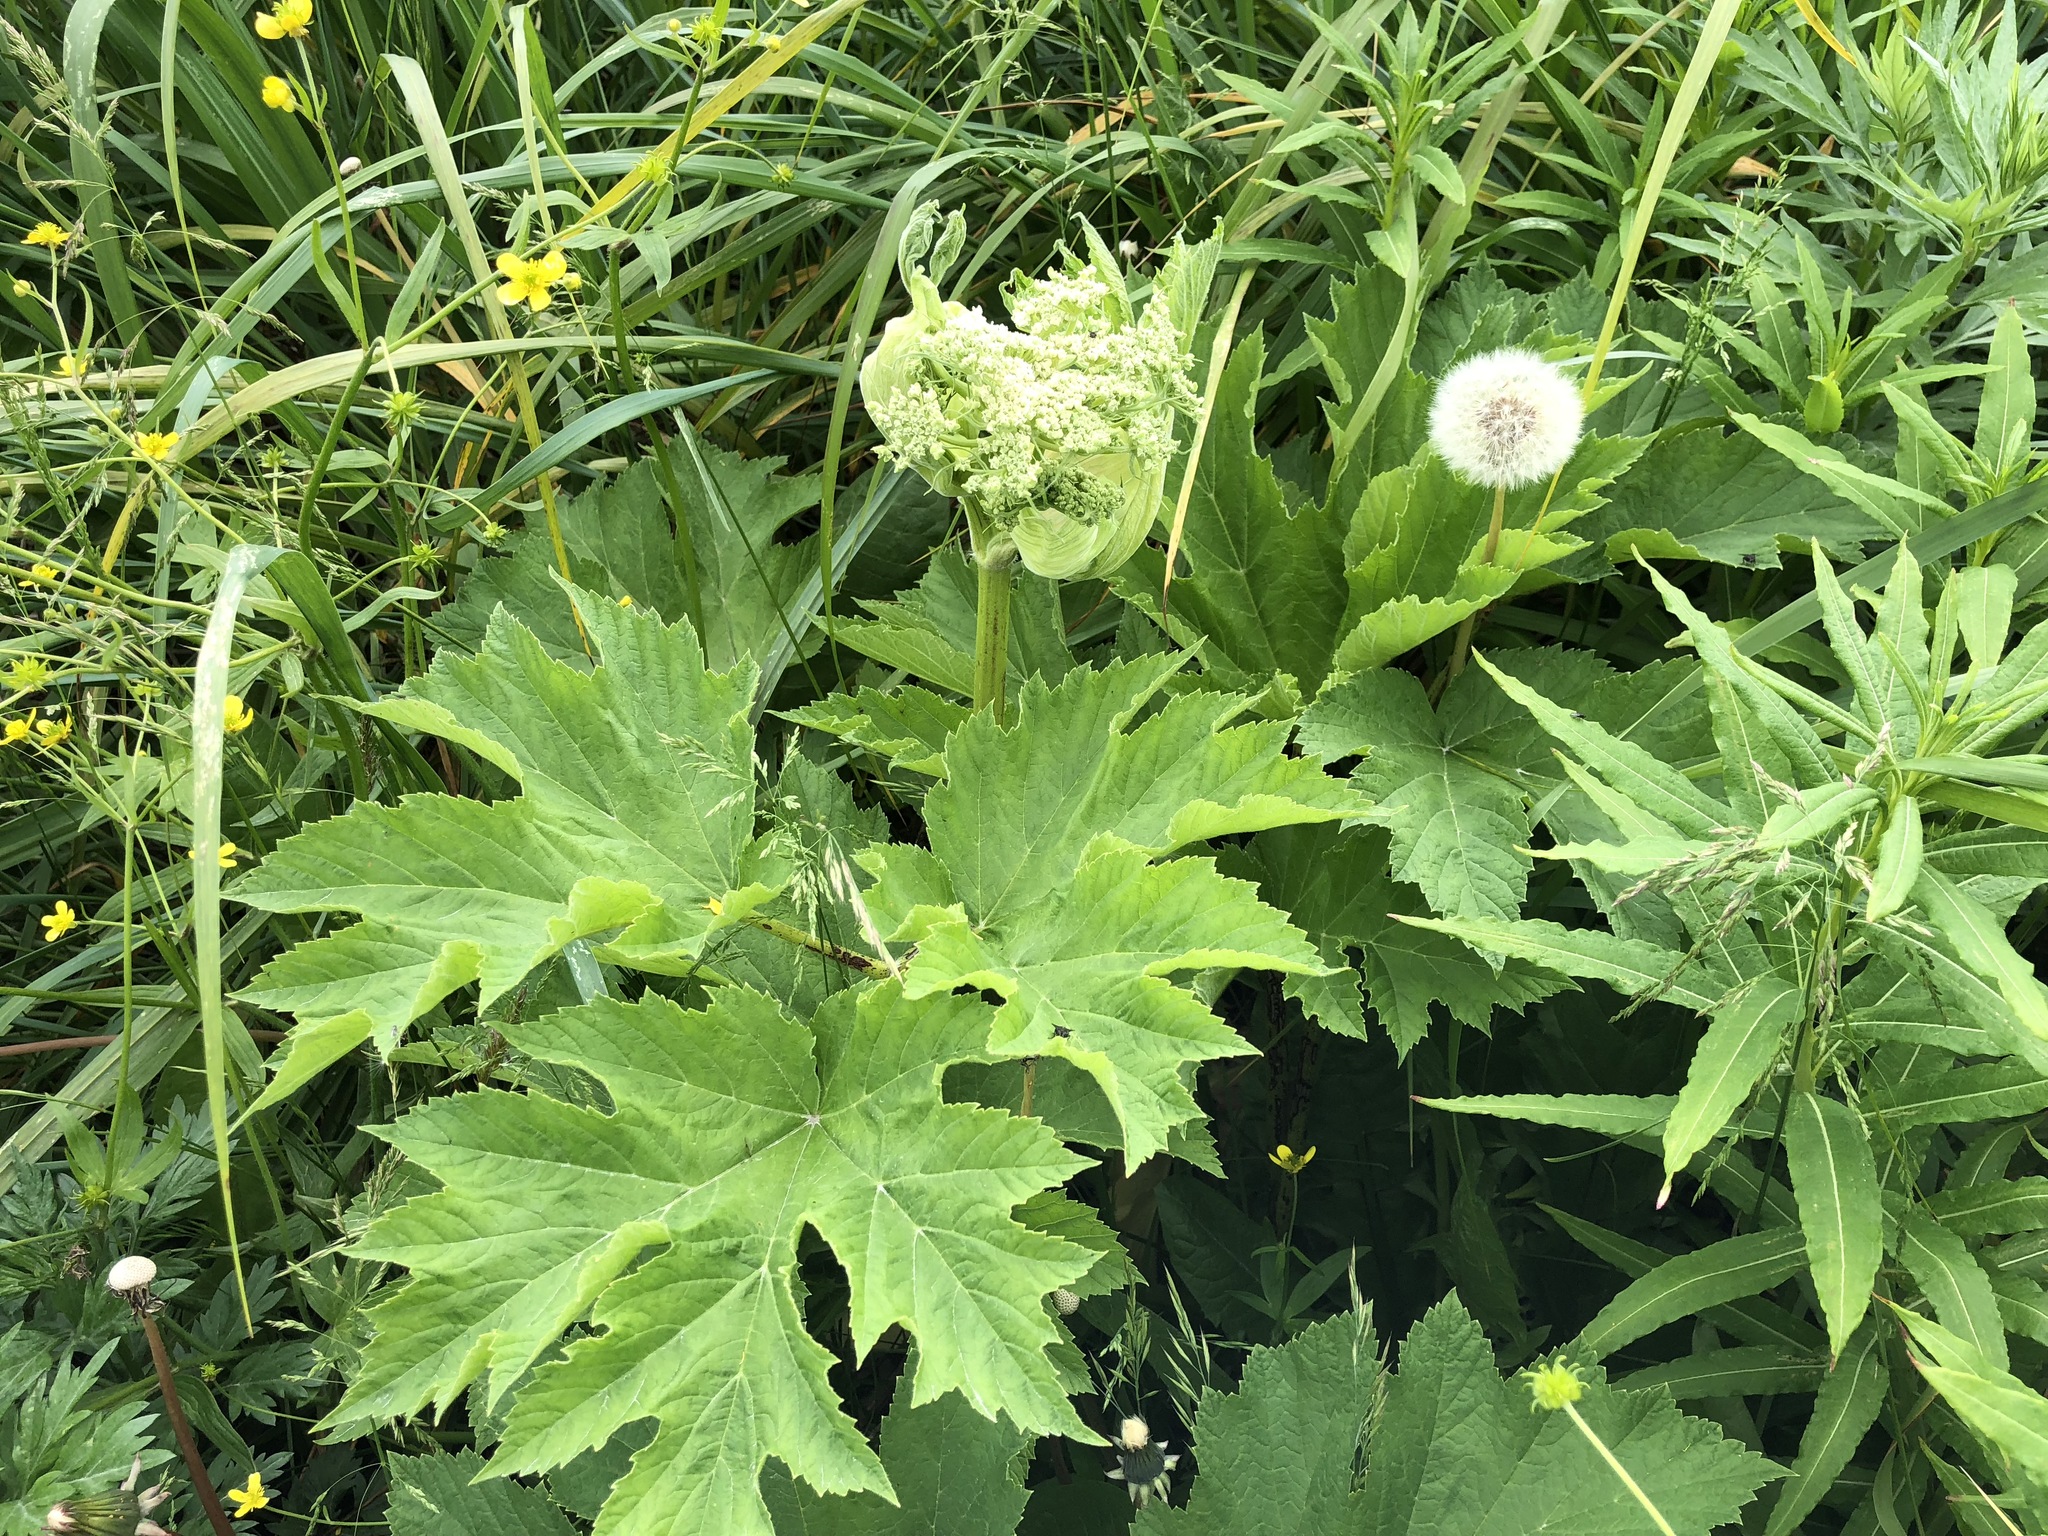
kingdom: Plantae
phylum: Tracheophyta
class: Magnoliopsida
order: Apiales
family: Apiaceae
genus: Heracleum
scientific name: Heracleum maximum
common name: American cow parsnip
